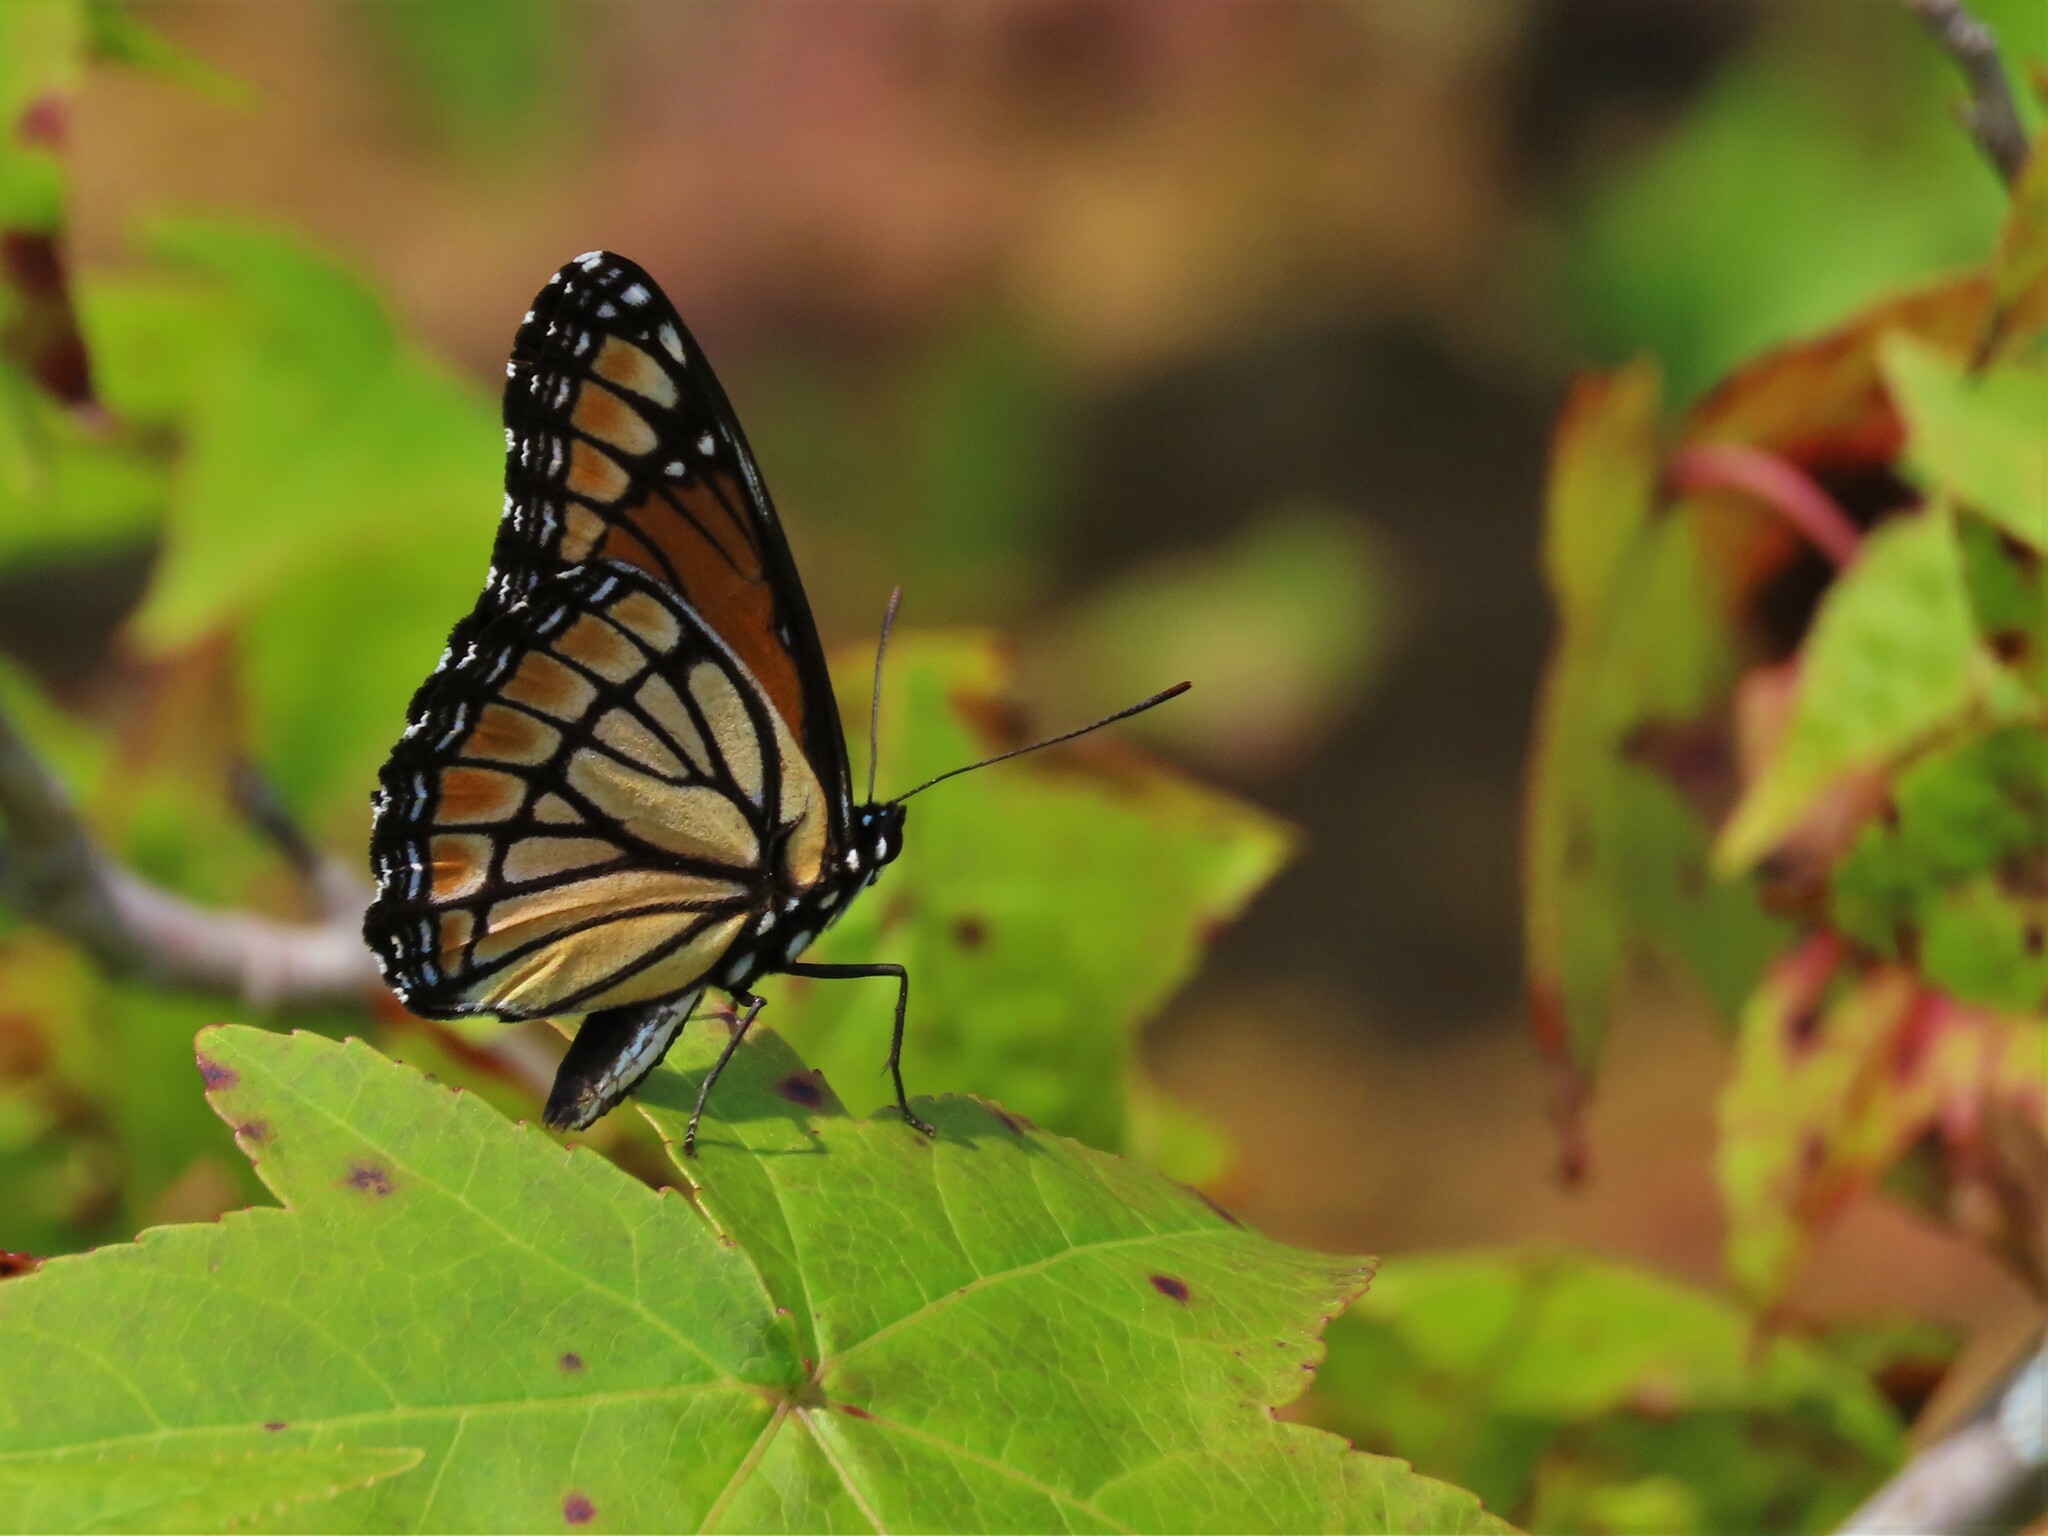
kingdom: Animalia
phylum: Arthropoda
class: Insecta
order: Lepidoptera
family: Nymphalidae
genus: Limenitis
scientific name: Limenitis archippus
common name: Viceroy
